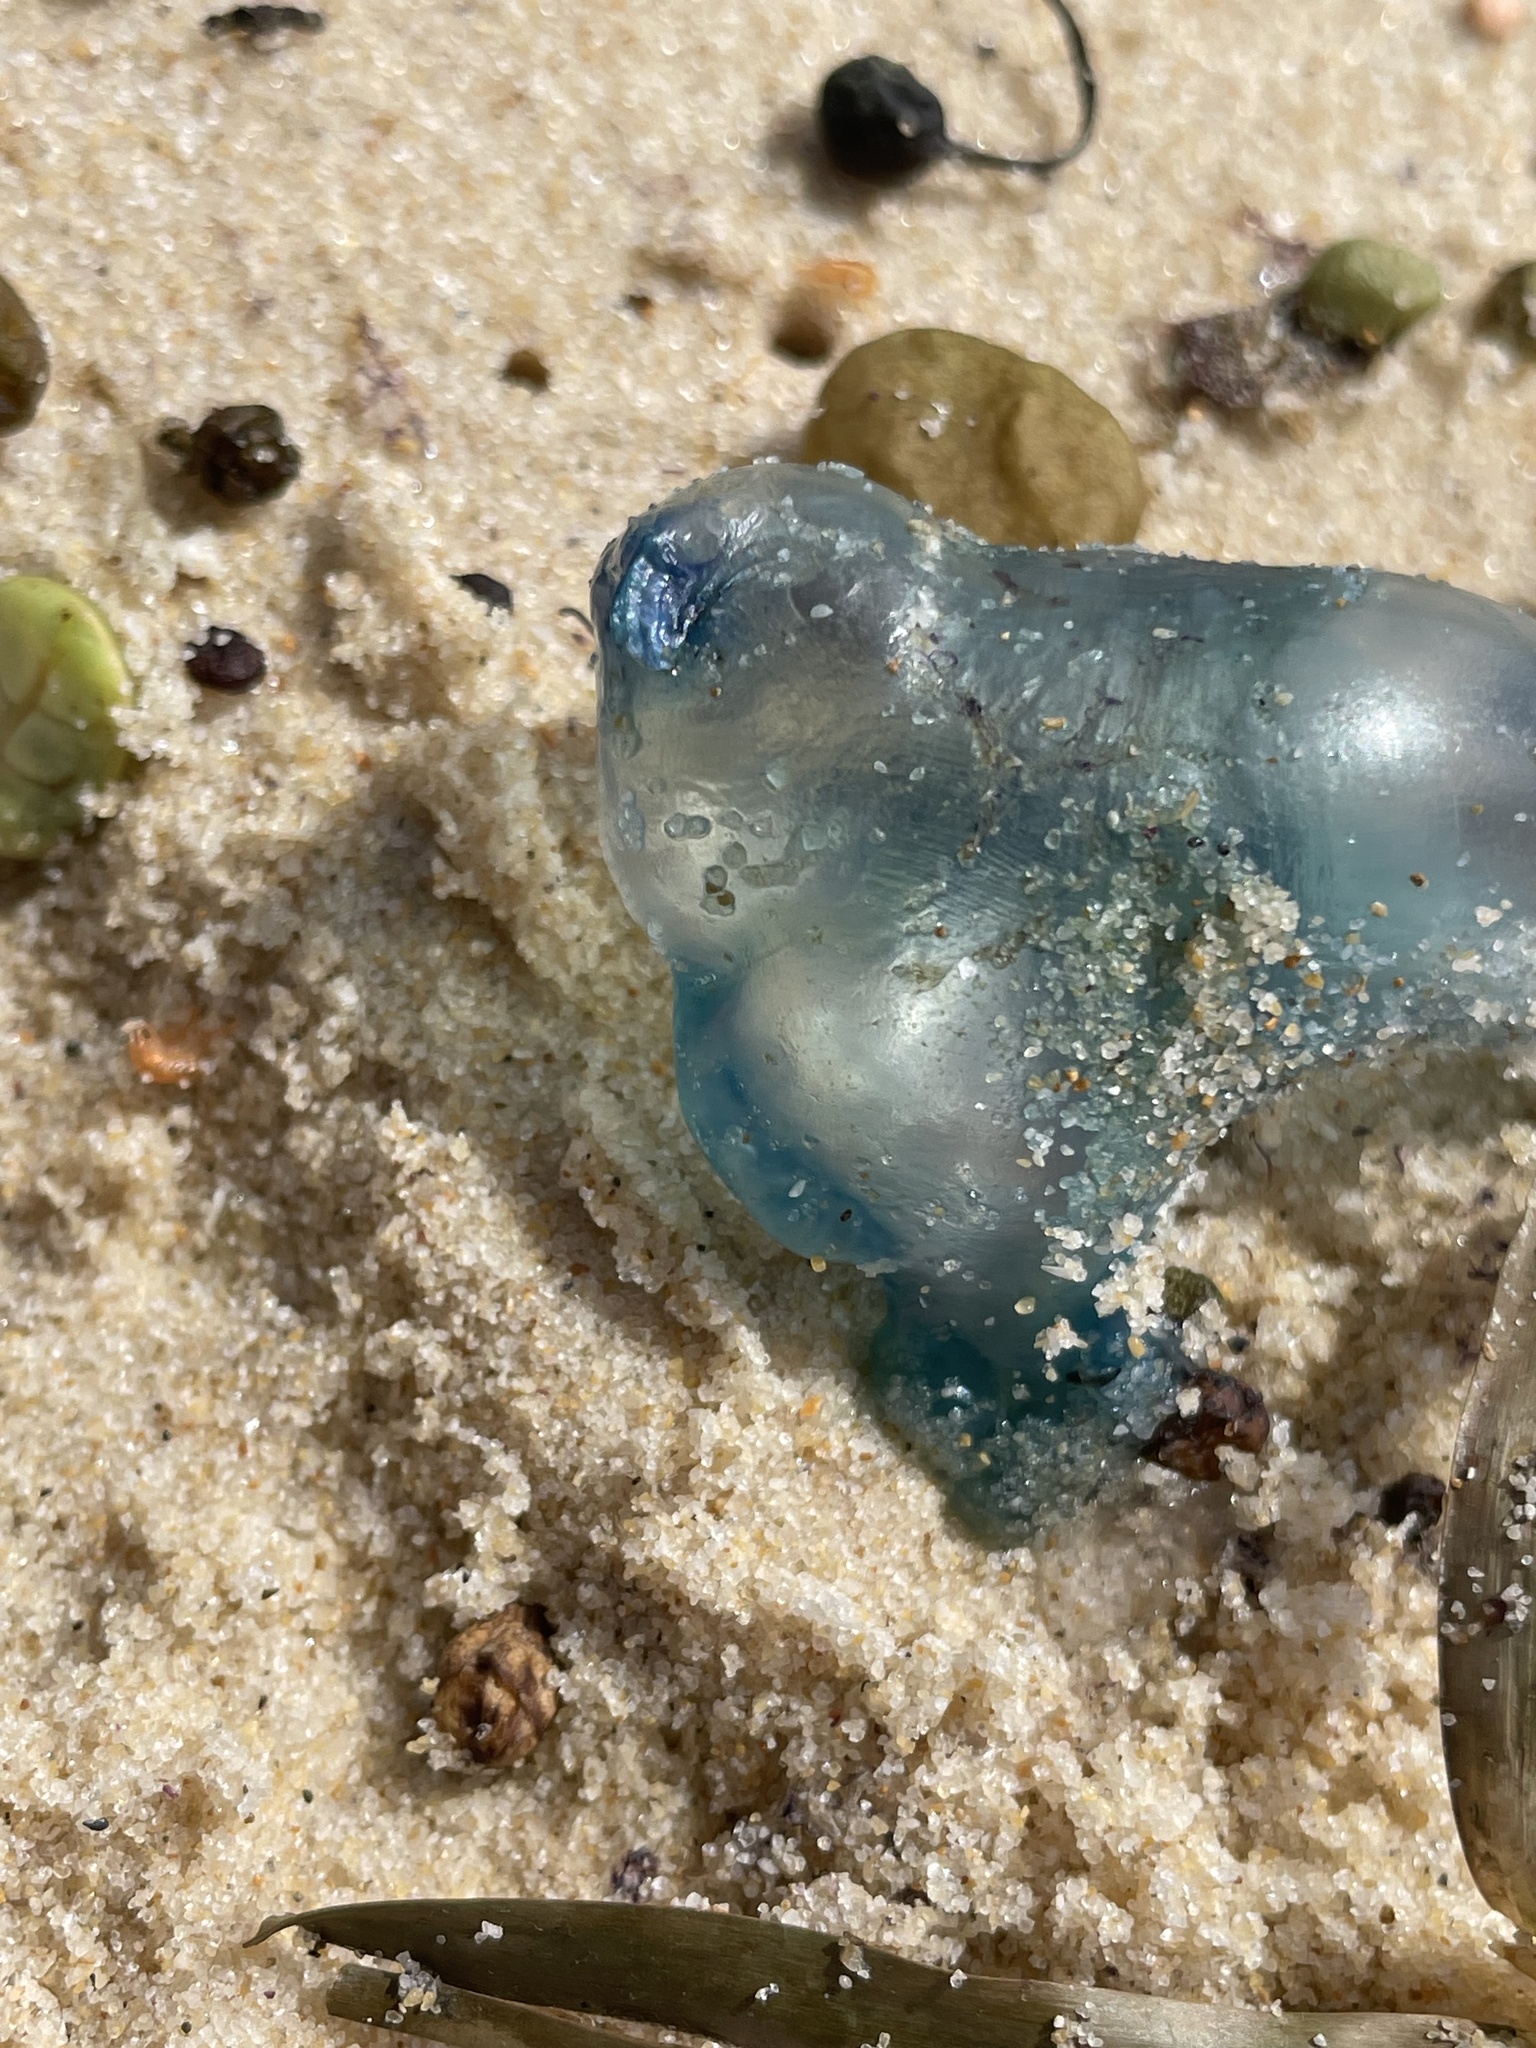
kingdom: Animalia
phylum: Cnidaria
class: Hydrozoa
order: Siphonophorae
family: Physaliidae
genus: Physalia
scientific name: Physalia physalis
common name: Portuguese man-of-war
